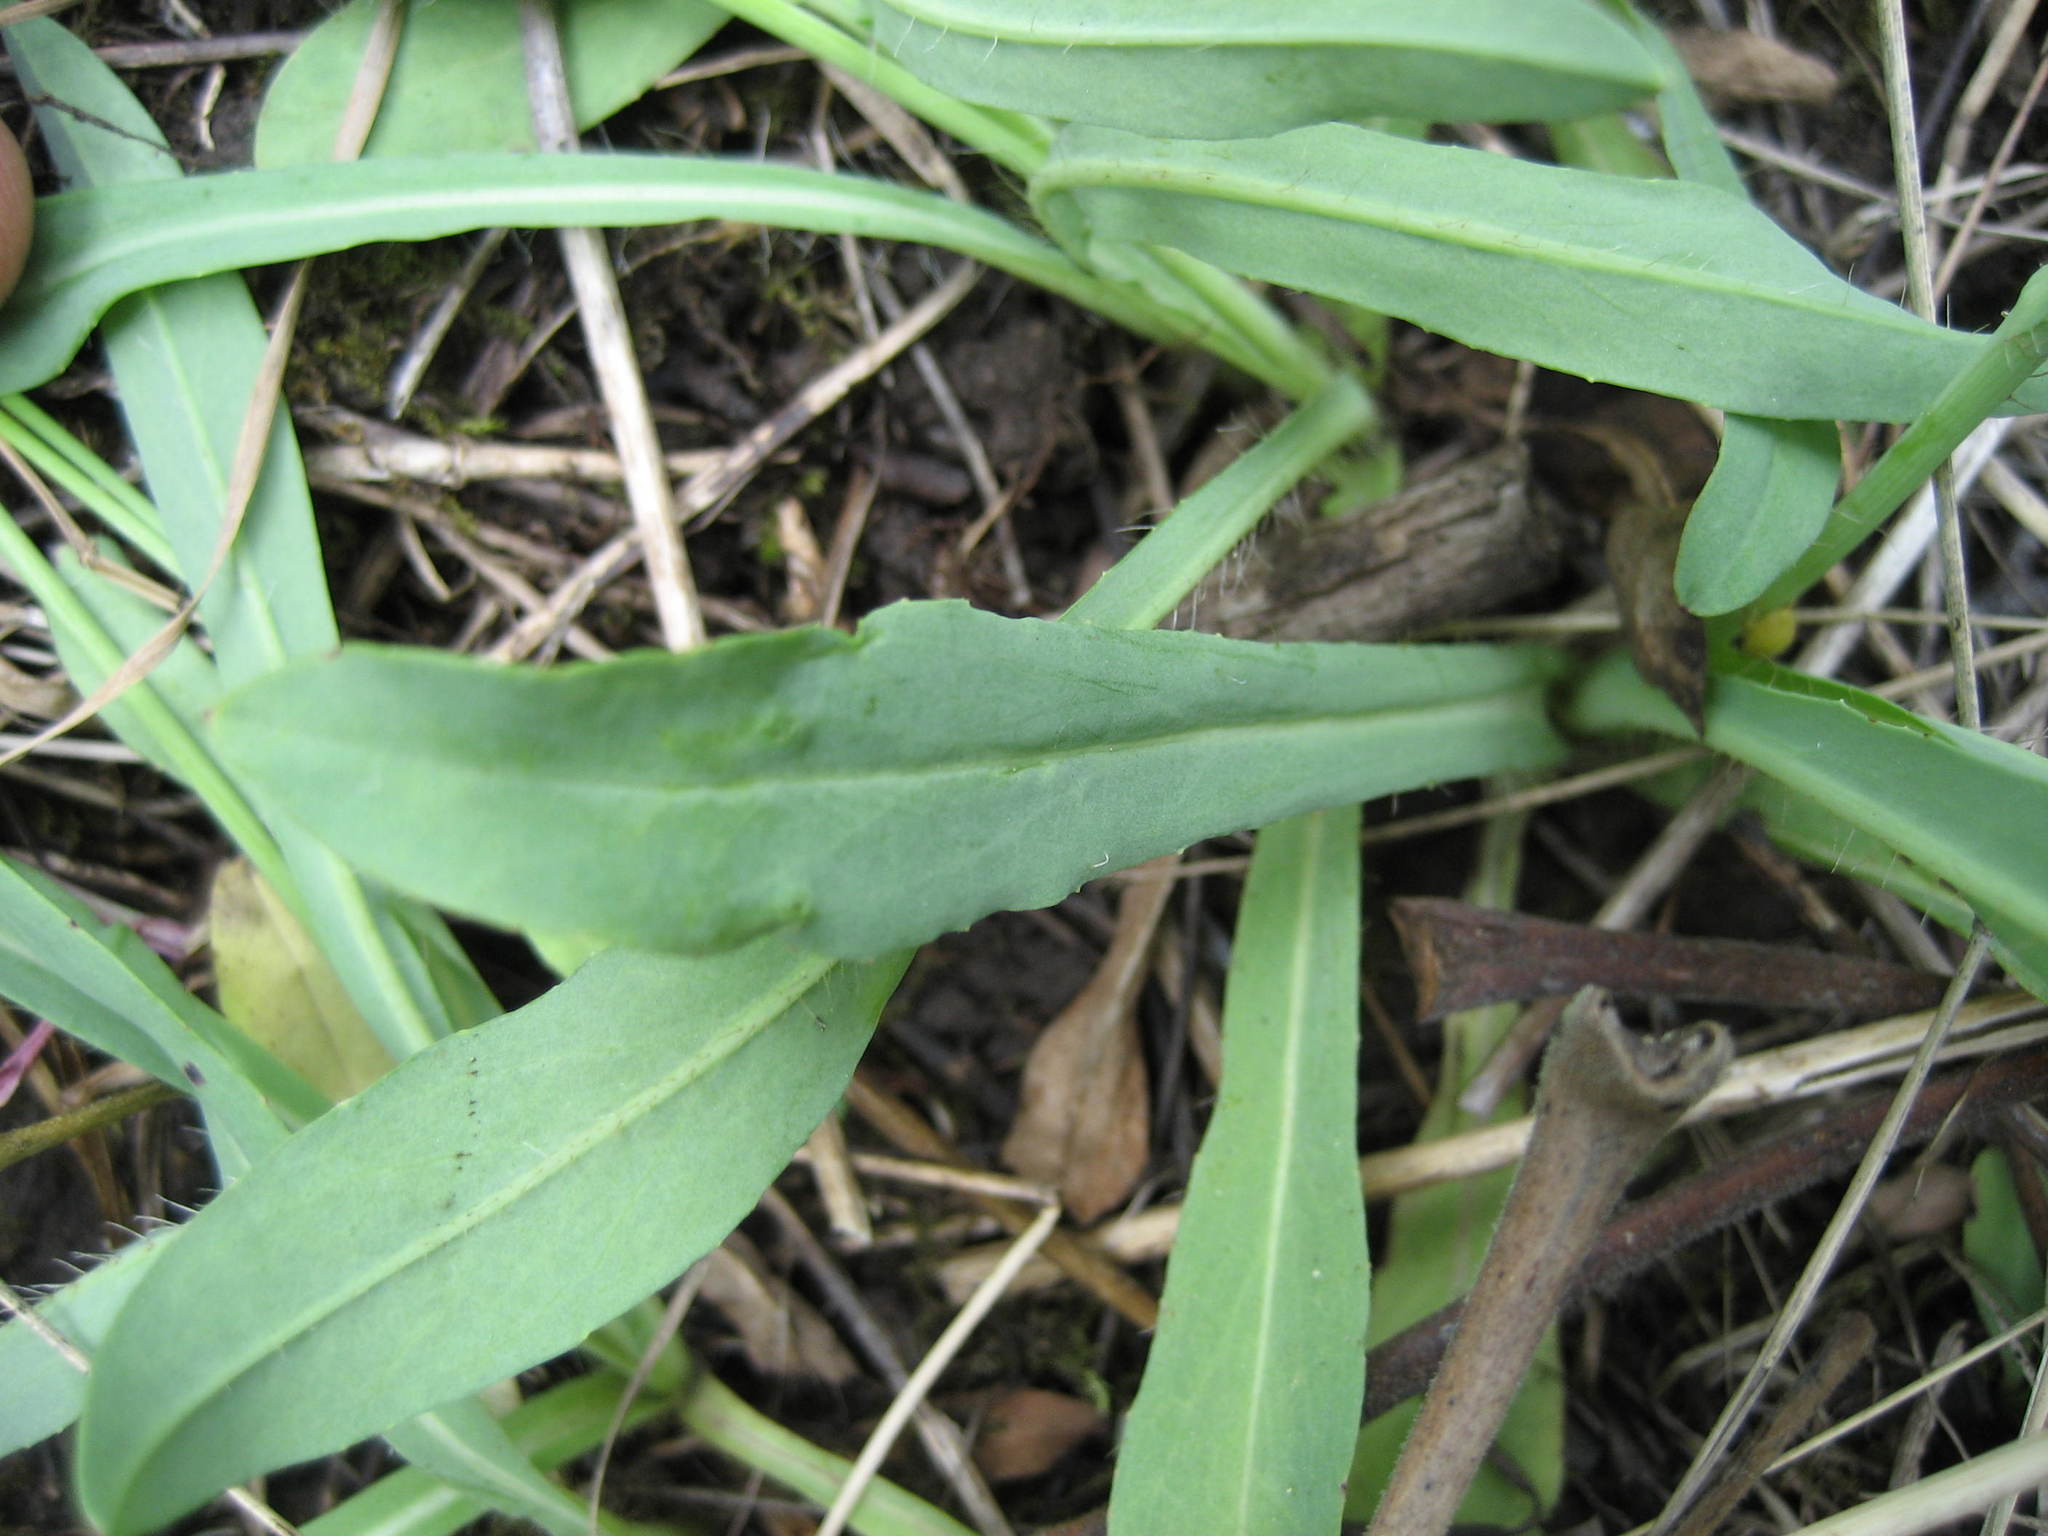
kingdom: Plantae
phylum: Tracheophyta
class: Magnoliopsida
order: Asterales
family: Asteraceae
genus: Pilosella
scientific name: Pilosella piloselloides
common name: Glaucous king-devil
